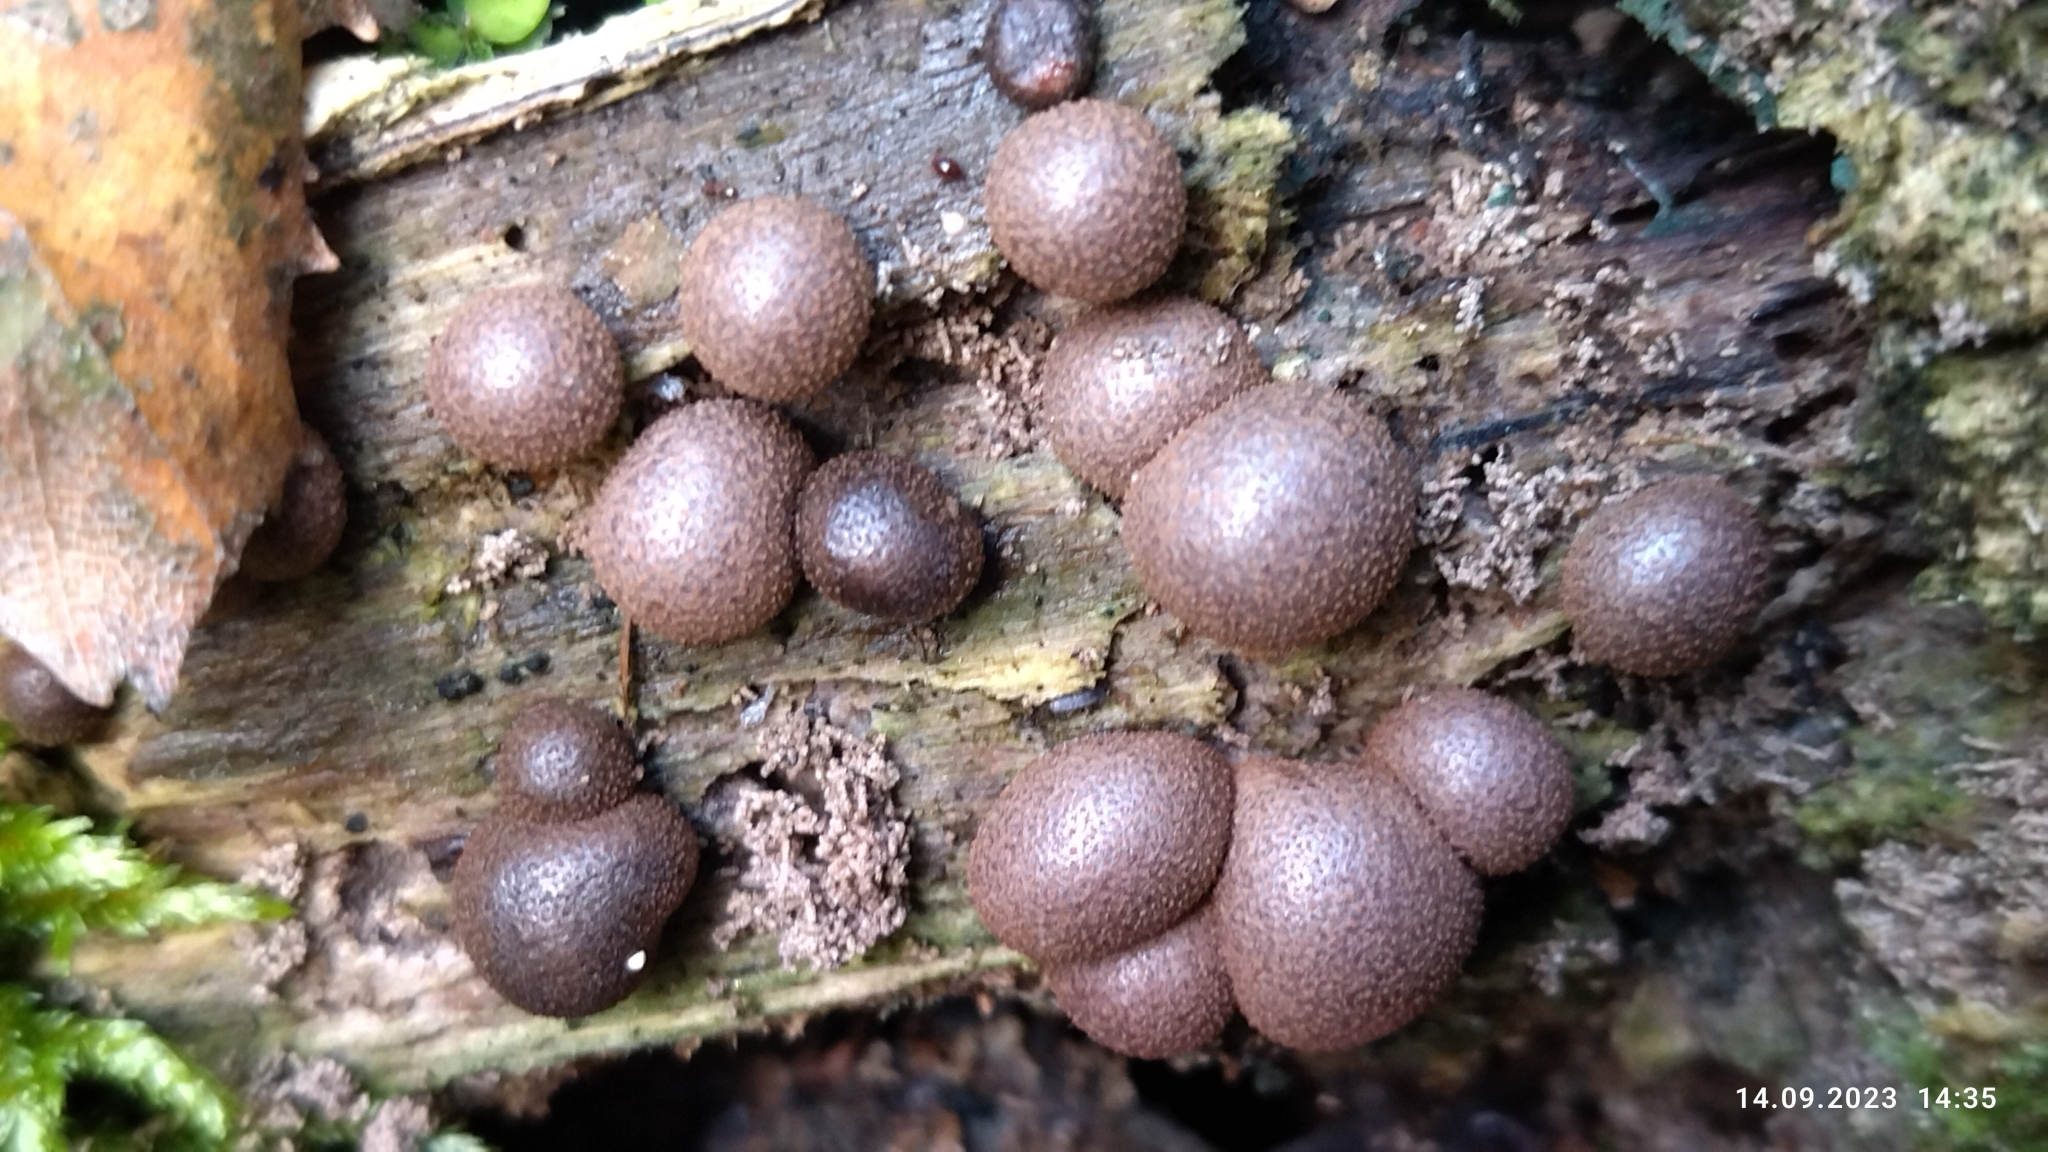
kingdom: Protozoa
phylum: Mycetozoa
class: Myxomycetes
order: Cribrariales
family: Tubiferaceae
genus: Lycogala
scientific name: Lycogala epidendrum
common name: Wolf's milk
